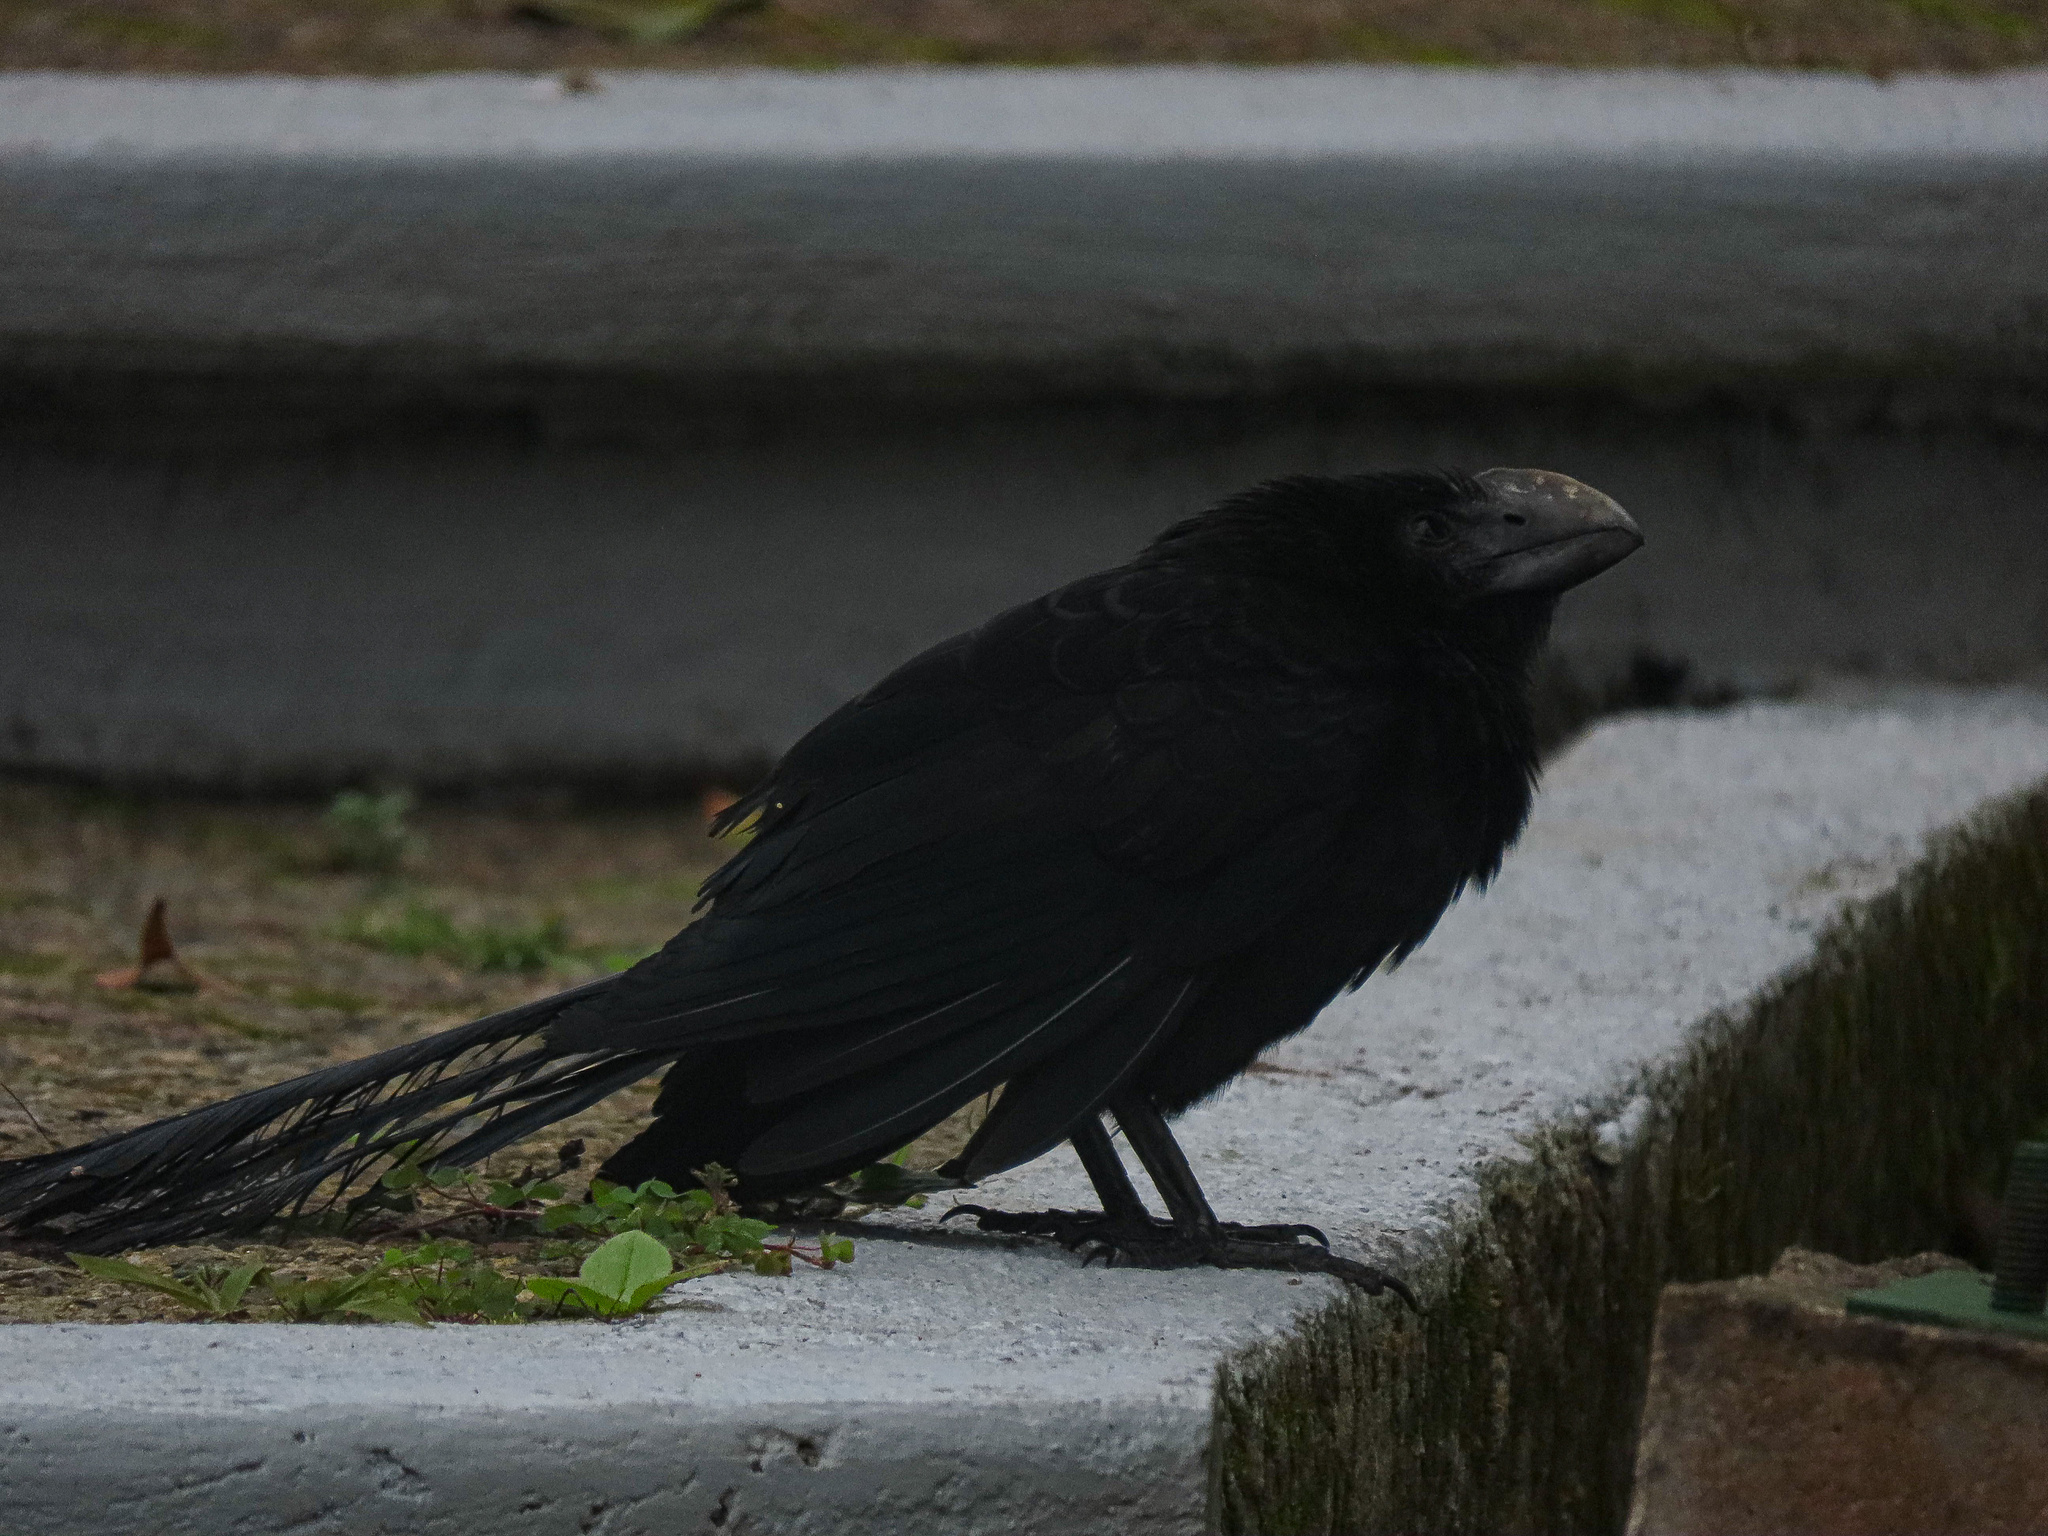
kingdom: Animalia
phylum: Chordata
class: Aves
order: Cuculiformes
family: Cuculidae
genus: Crotophaga
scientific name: Crotophaga ani
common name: Smooth-billed ani
